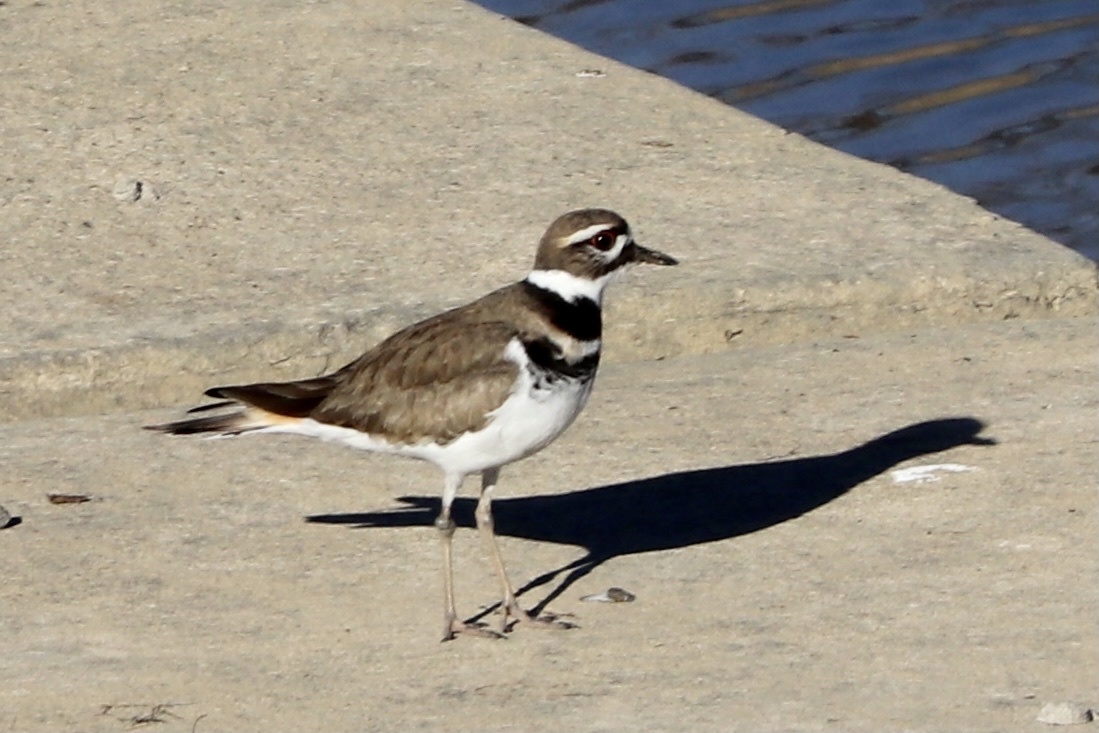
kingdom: Animalia
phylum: Chordata
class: Aves
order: Charadriiformes
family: Charadriidae
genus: Charadrius
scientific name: Charadrius vociferus
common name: Killdeer
